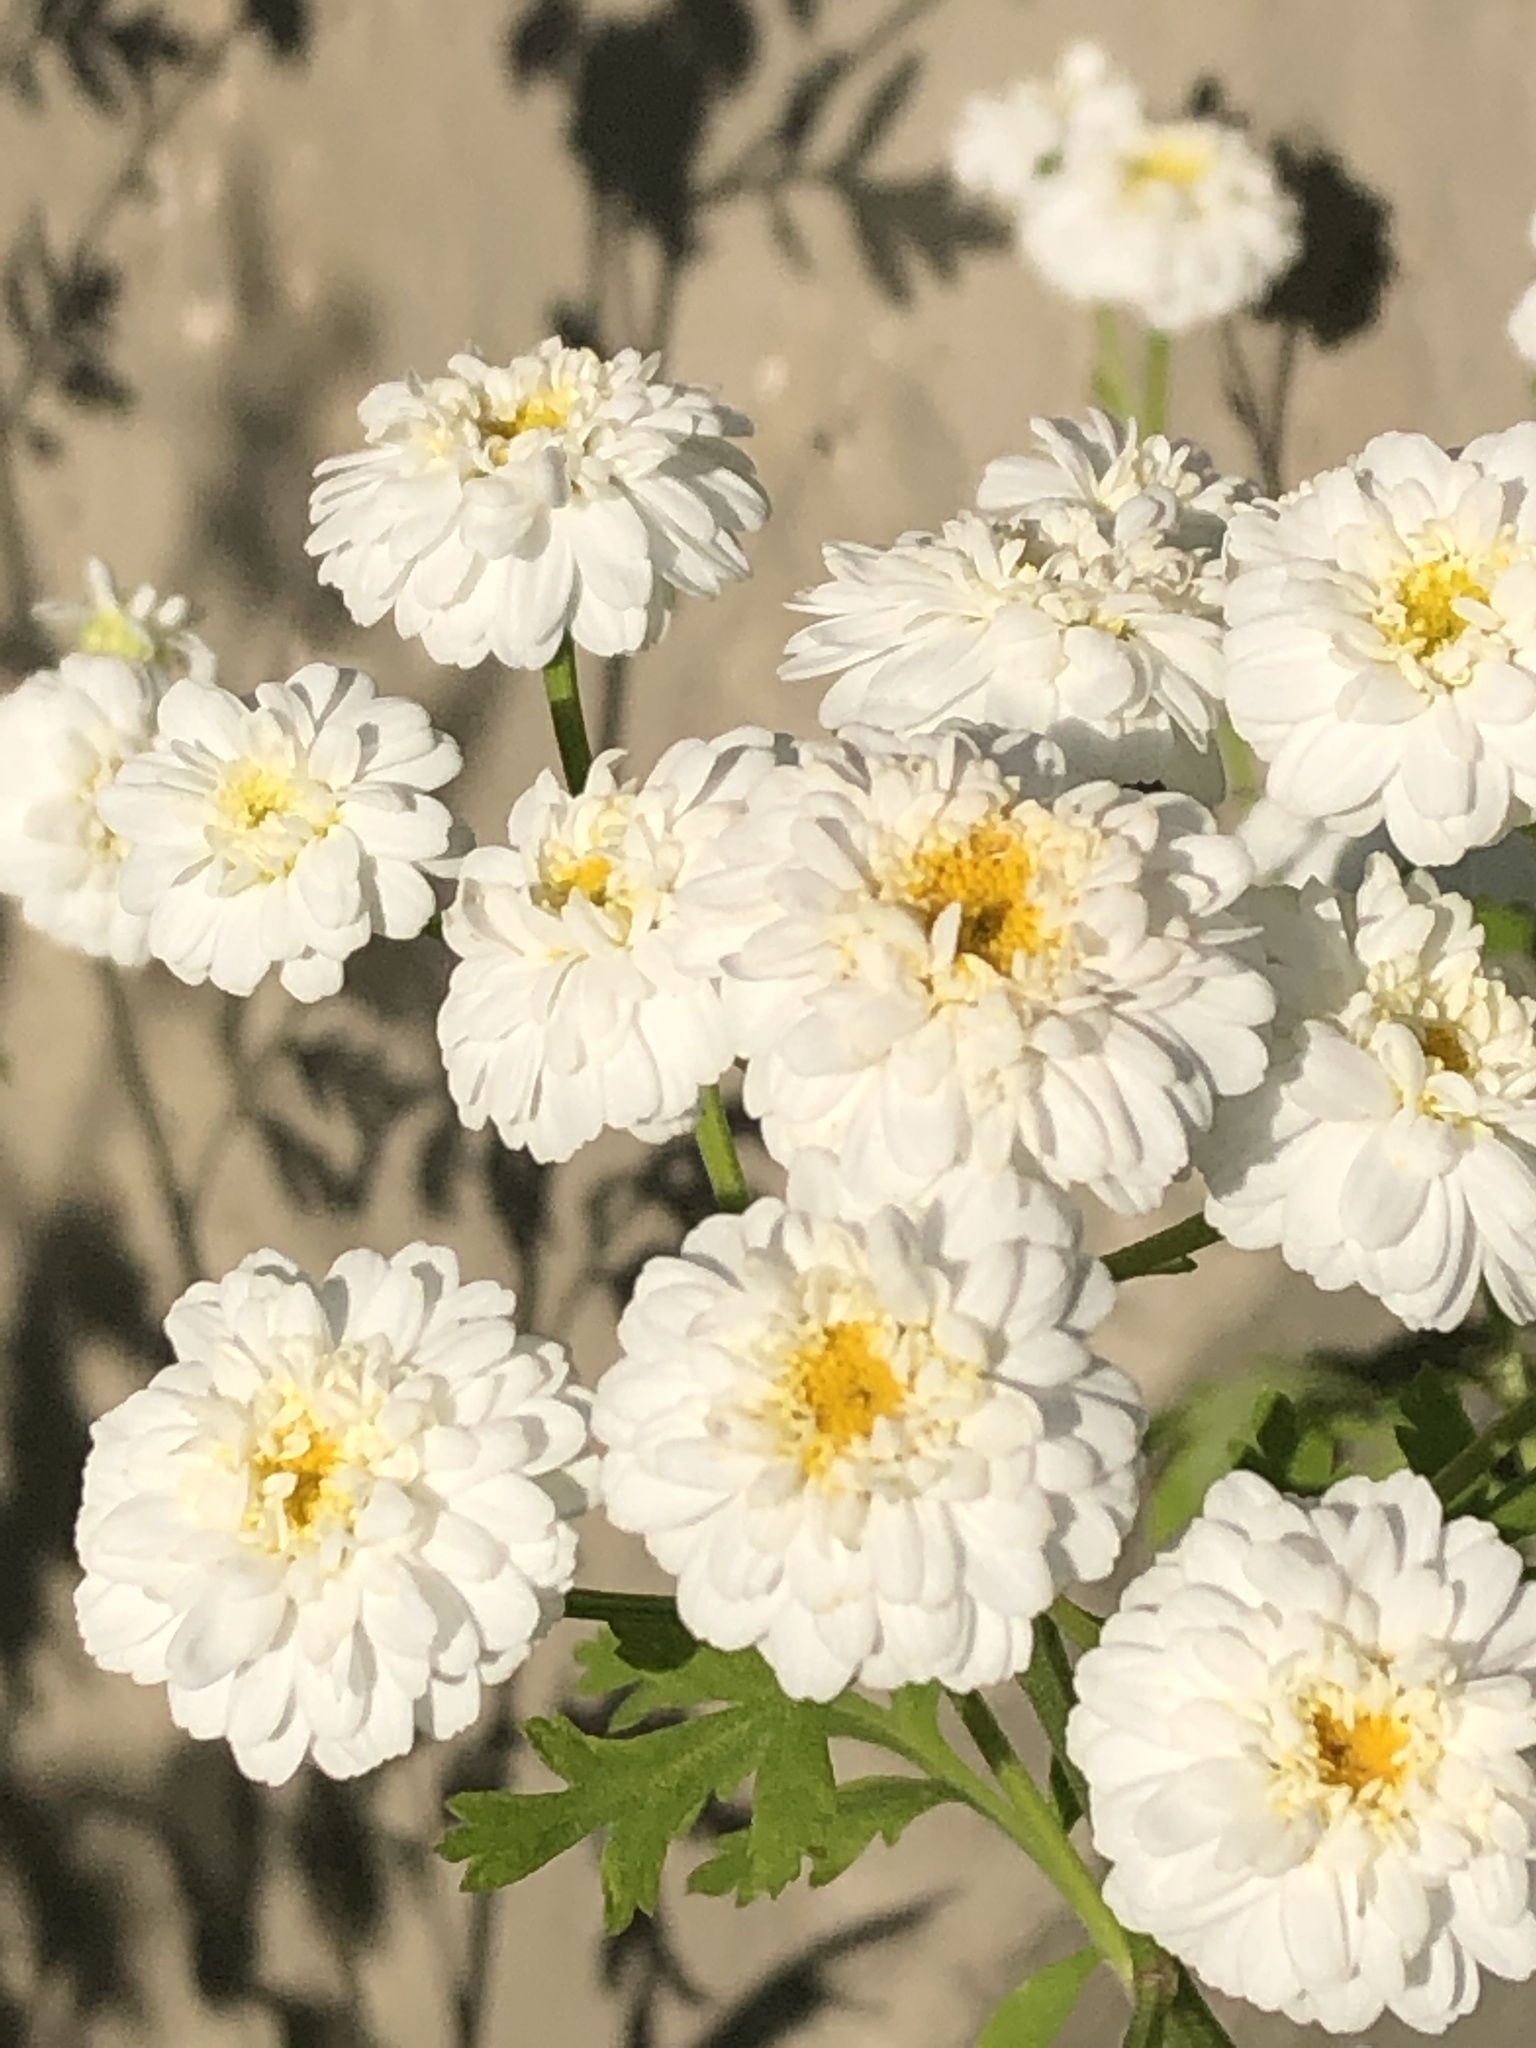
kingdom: Plantae
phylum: Tracheophyta
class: Magnoliopsida
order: Asterales
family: Asteraceae
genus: Tanacetum
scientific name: Tanacetum parthenium
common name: Feverfew
